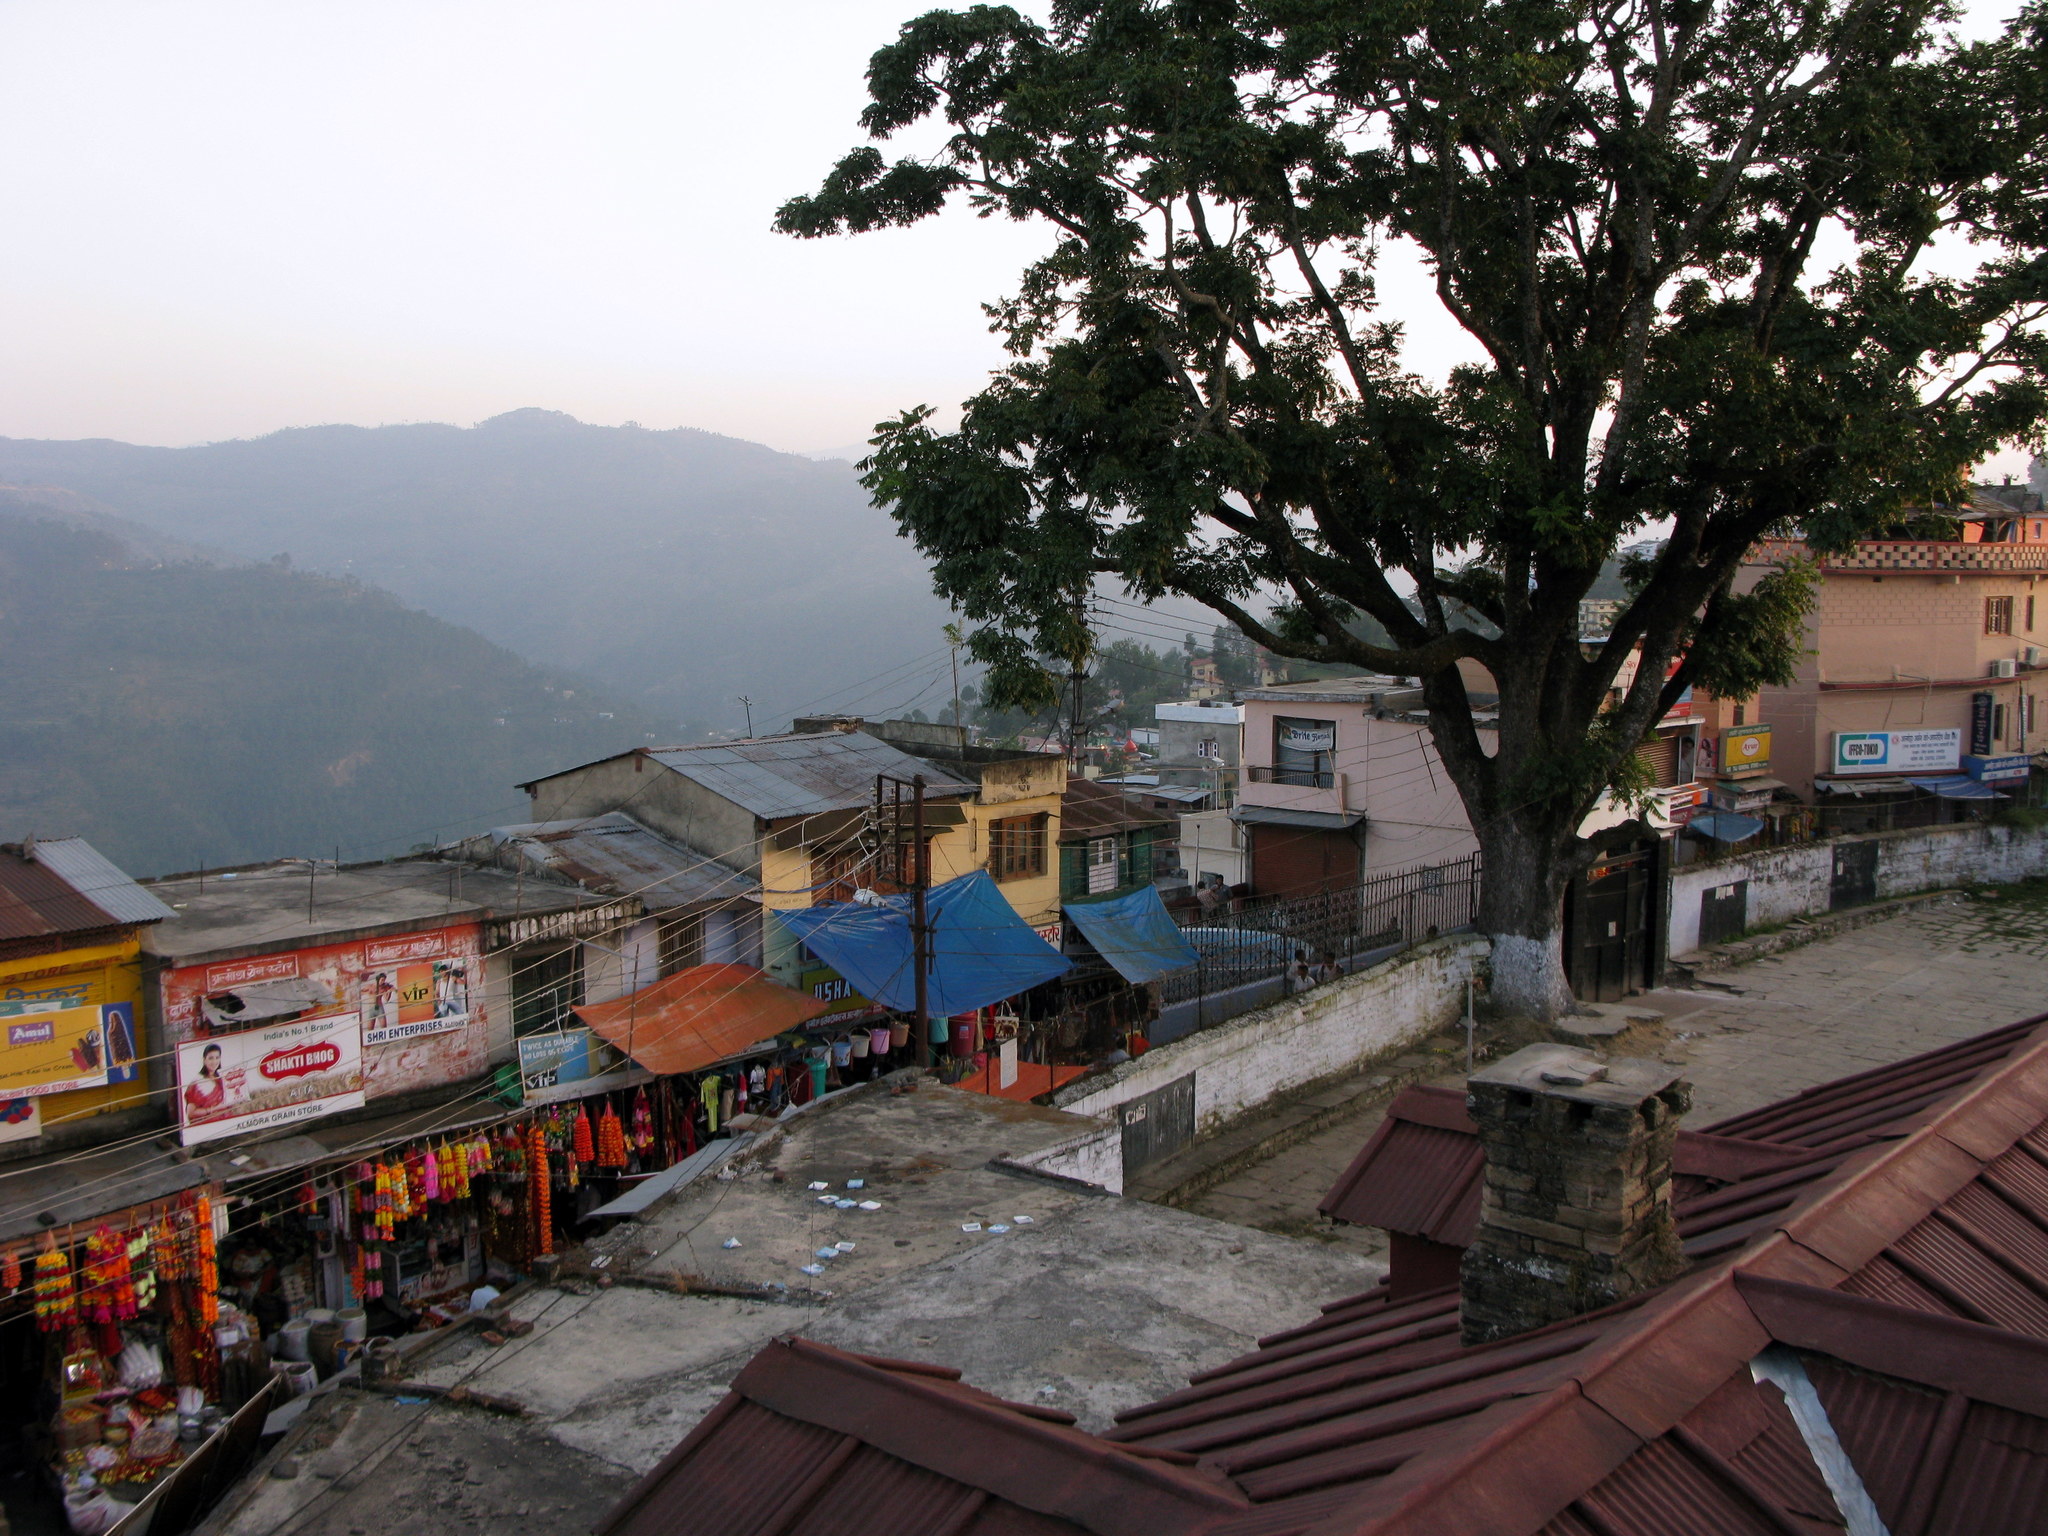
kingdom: Plantae
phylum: Tracheophyta
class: Magnoliopsida
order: Sapindales
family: Meliaceae
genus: Toona
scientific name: Toona sinensis
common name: Red toon
